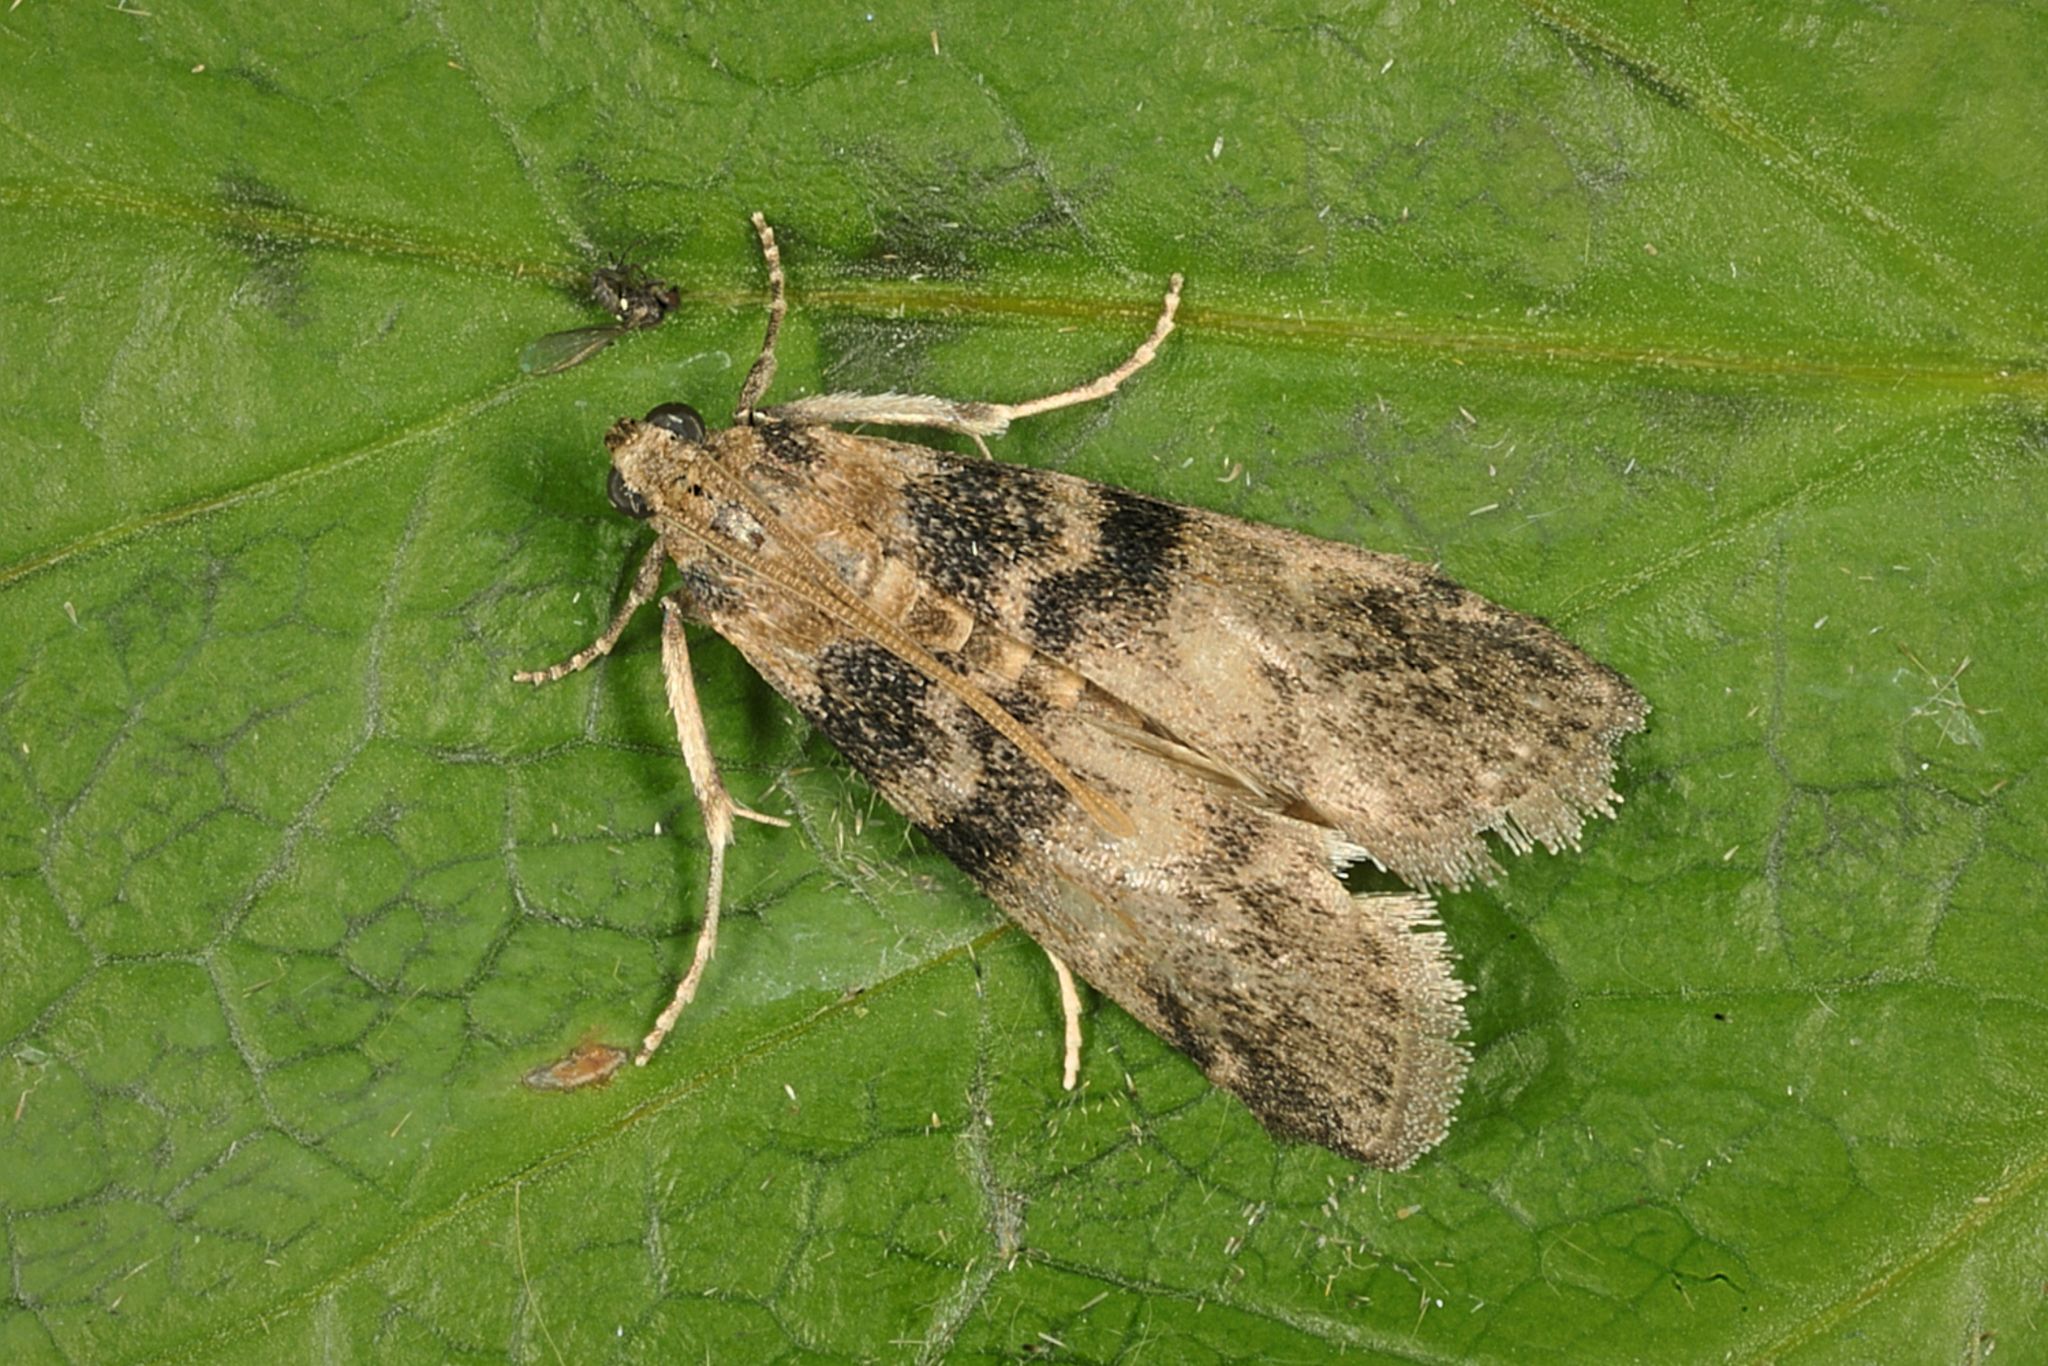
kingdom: Animalia
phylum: Arthropoda
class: Insecta
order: Lepidoptera
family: Pyralidae
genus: Euzophera
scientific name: Euzophera pinguis
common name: Ash-bark knot-horn
